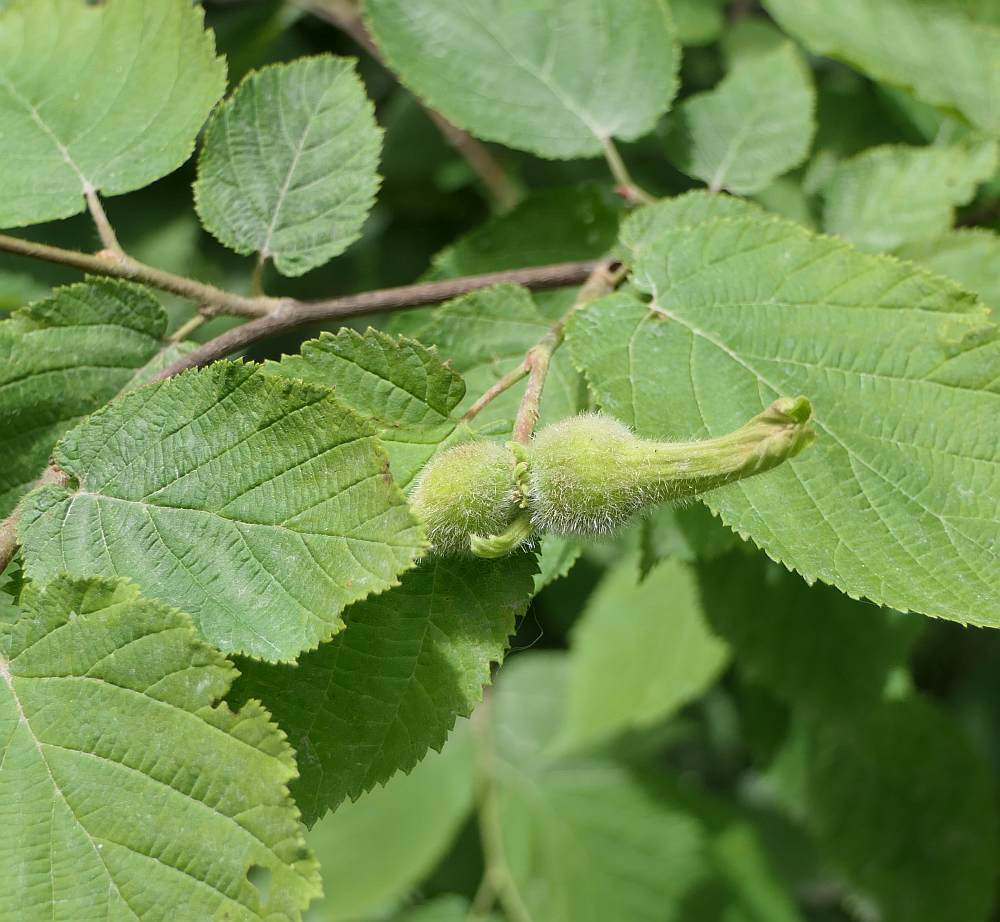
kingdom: Plantae
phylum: Tracheophyta
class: Magnoliopsida
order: Fagales
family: Betulaceae
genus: Corylus
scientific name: Corylus cornuta
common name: Beaked hazel
